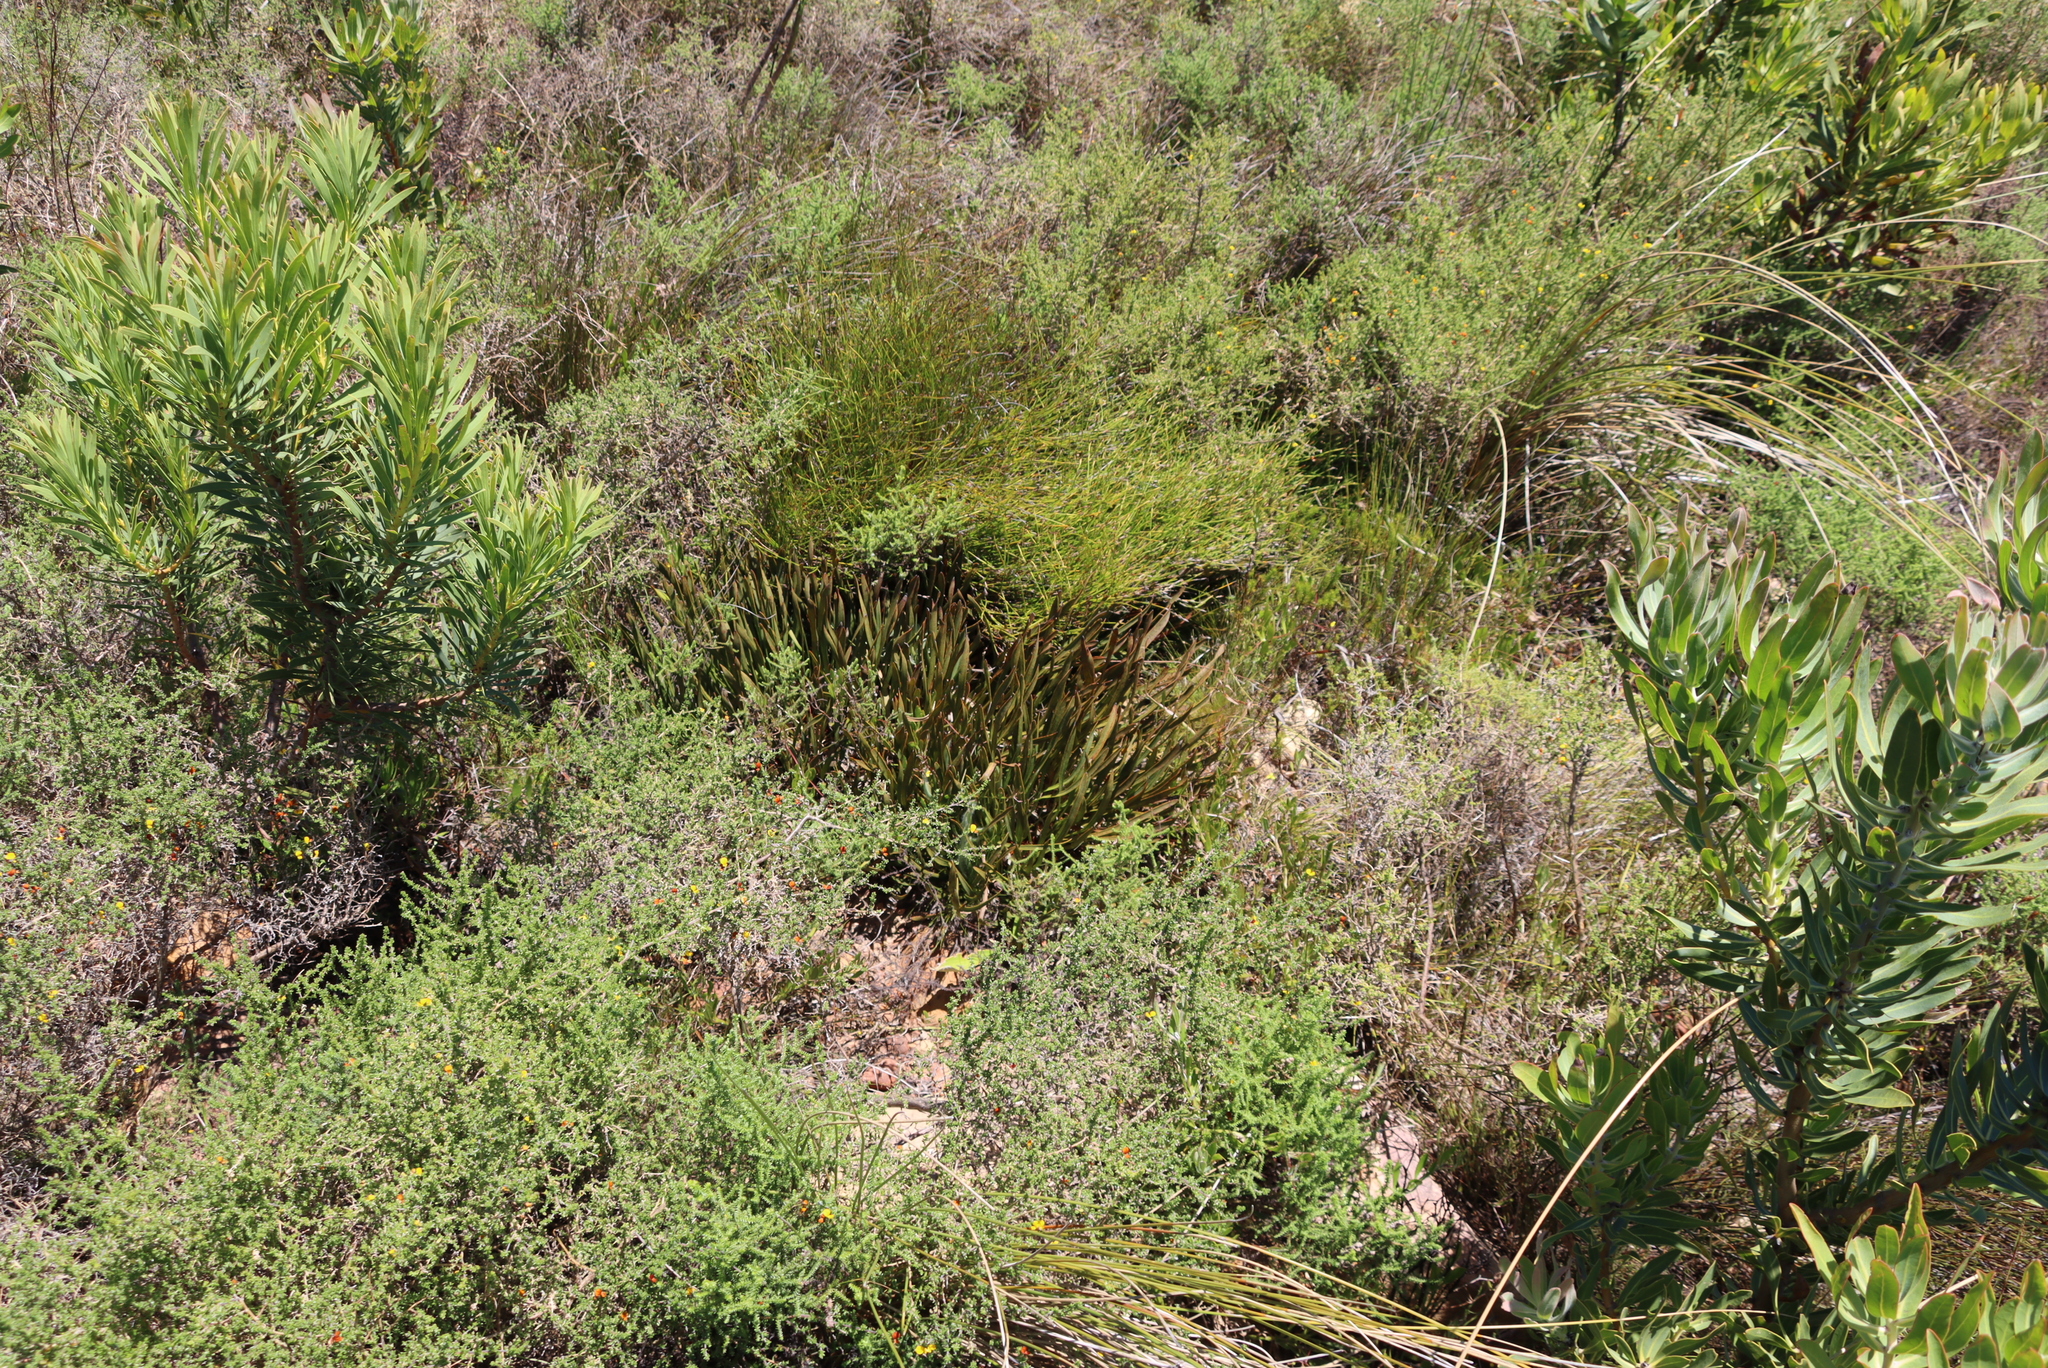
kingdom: Plantae
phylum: Tracheophyta
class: Magnoliopsida
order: Proteales
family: Proteaceae
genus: Protea
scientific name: Protea scabra
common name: Sandpaper-leaf sugarbush
